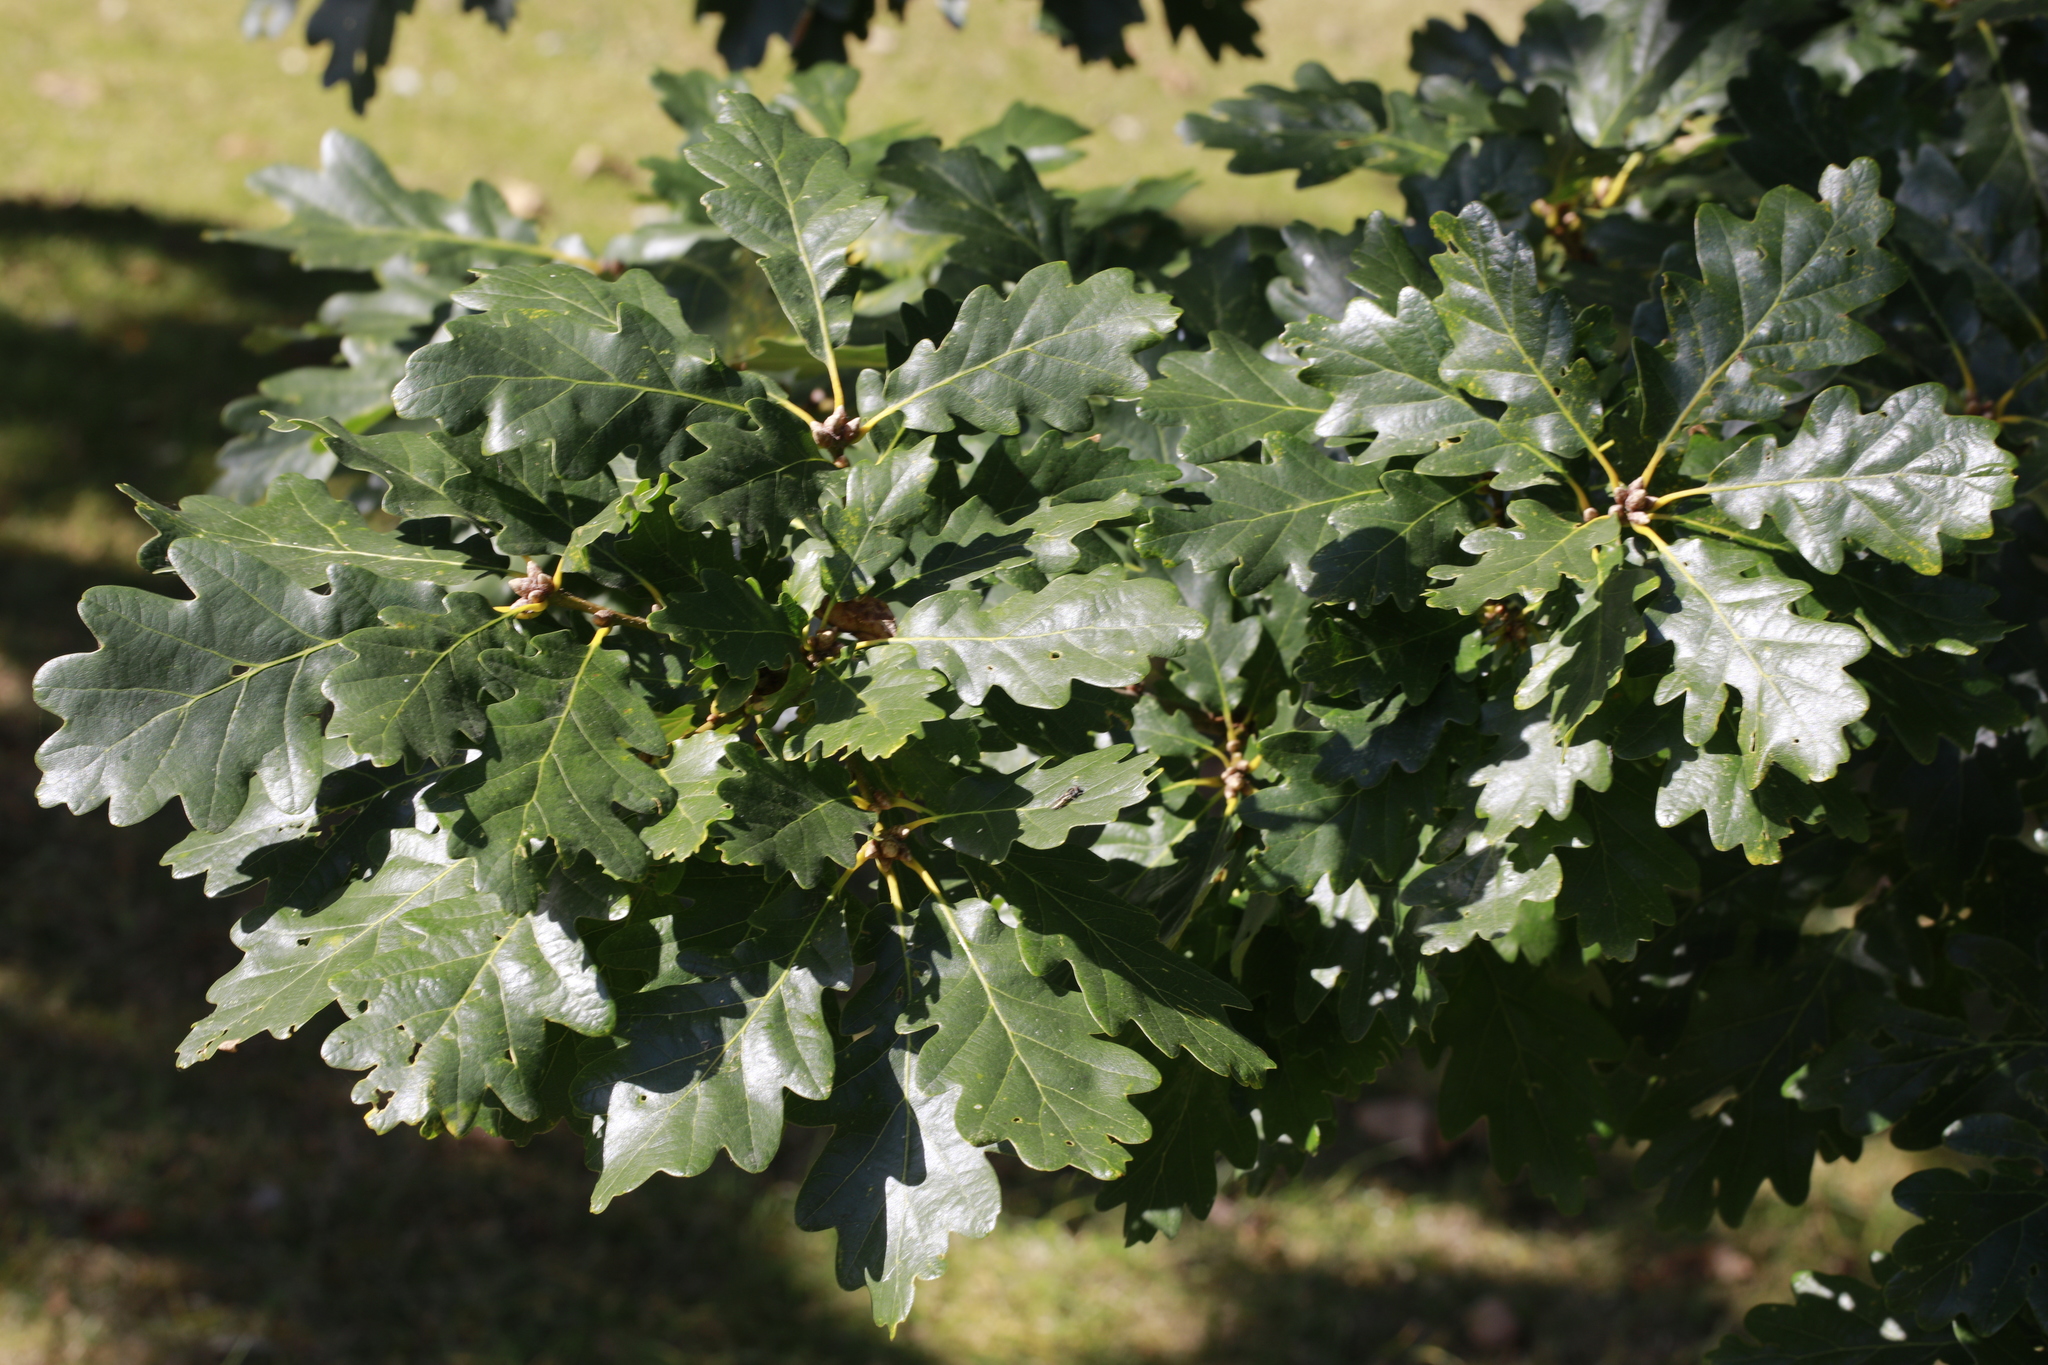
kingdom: Plantae
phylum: Tracheophyta
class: Magnoliopsida
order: Fagales
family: Fagaceae
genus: Quercus
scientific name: Quercus robur
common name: Pedunculate oak
